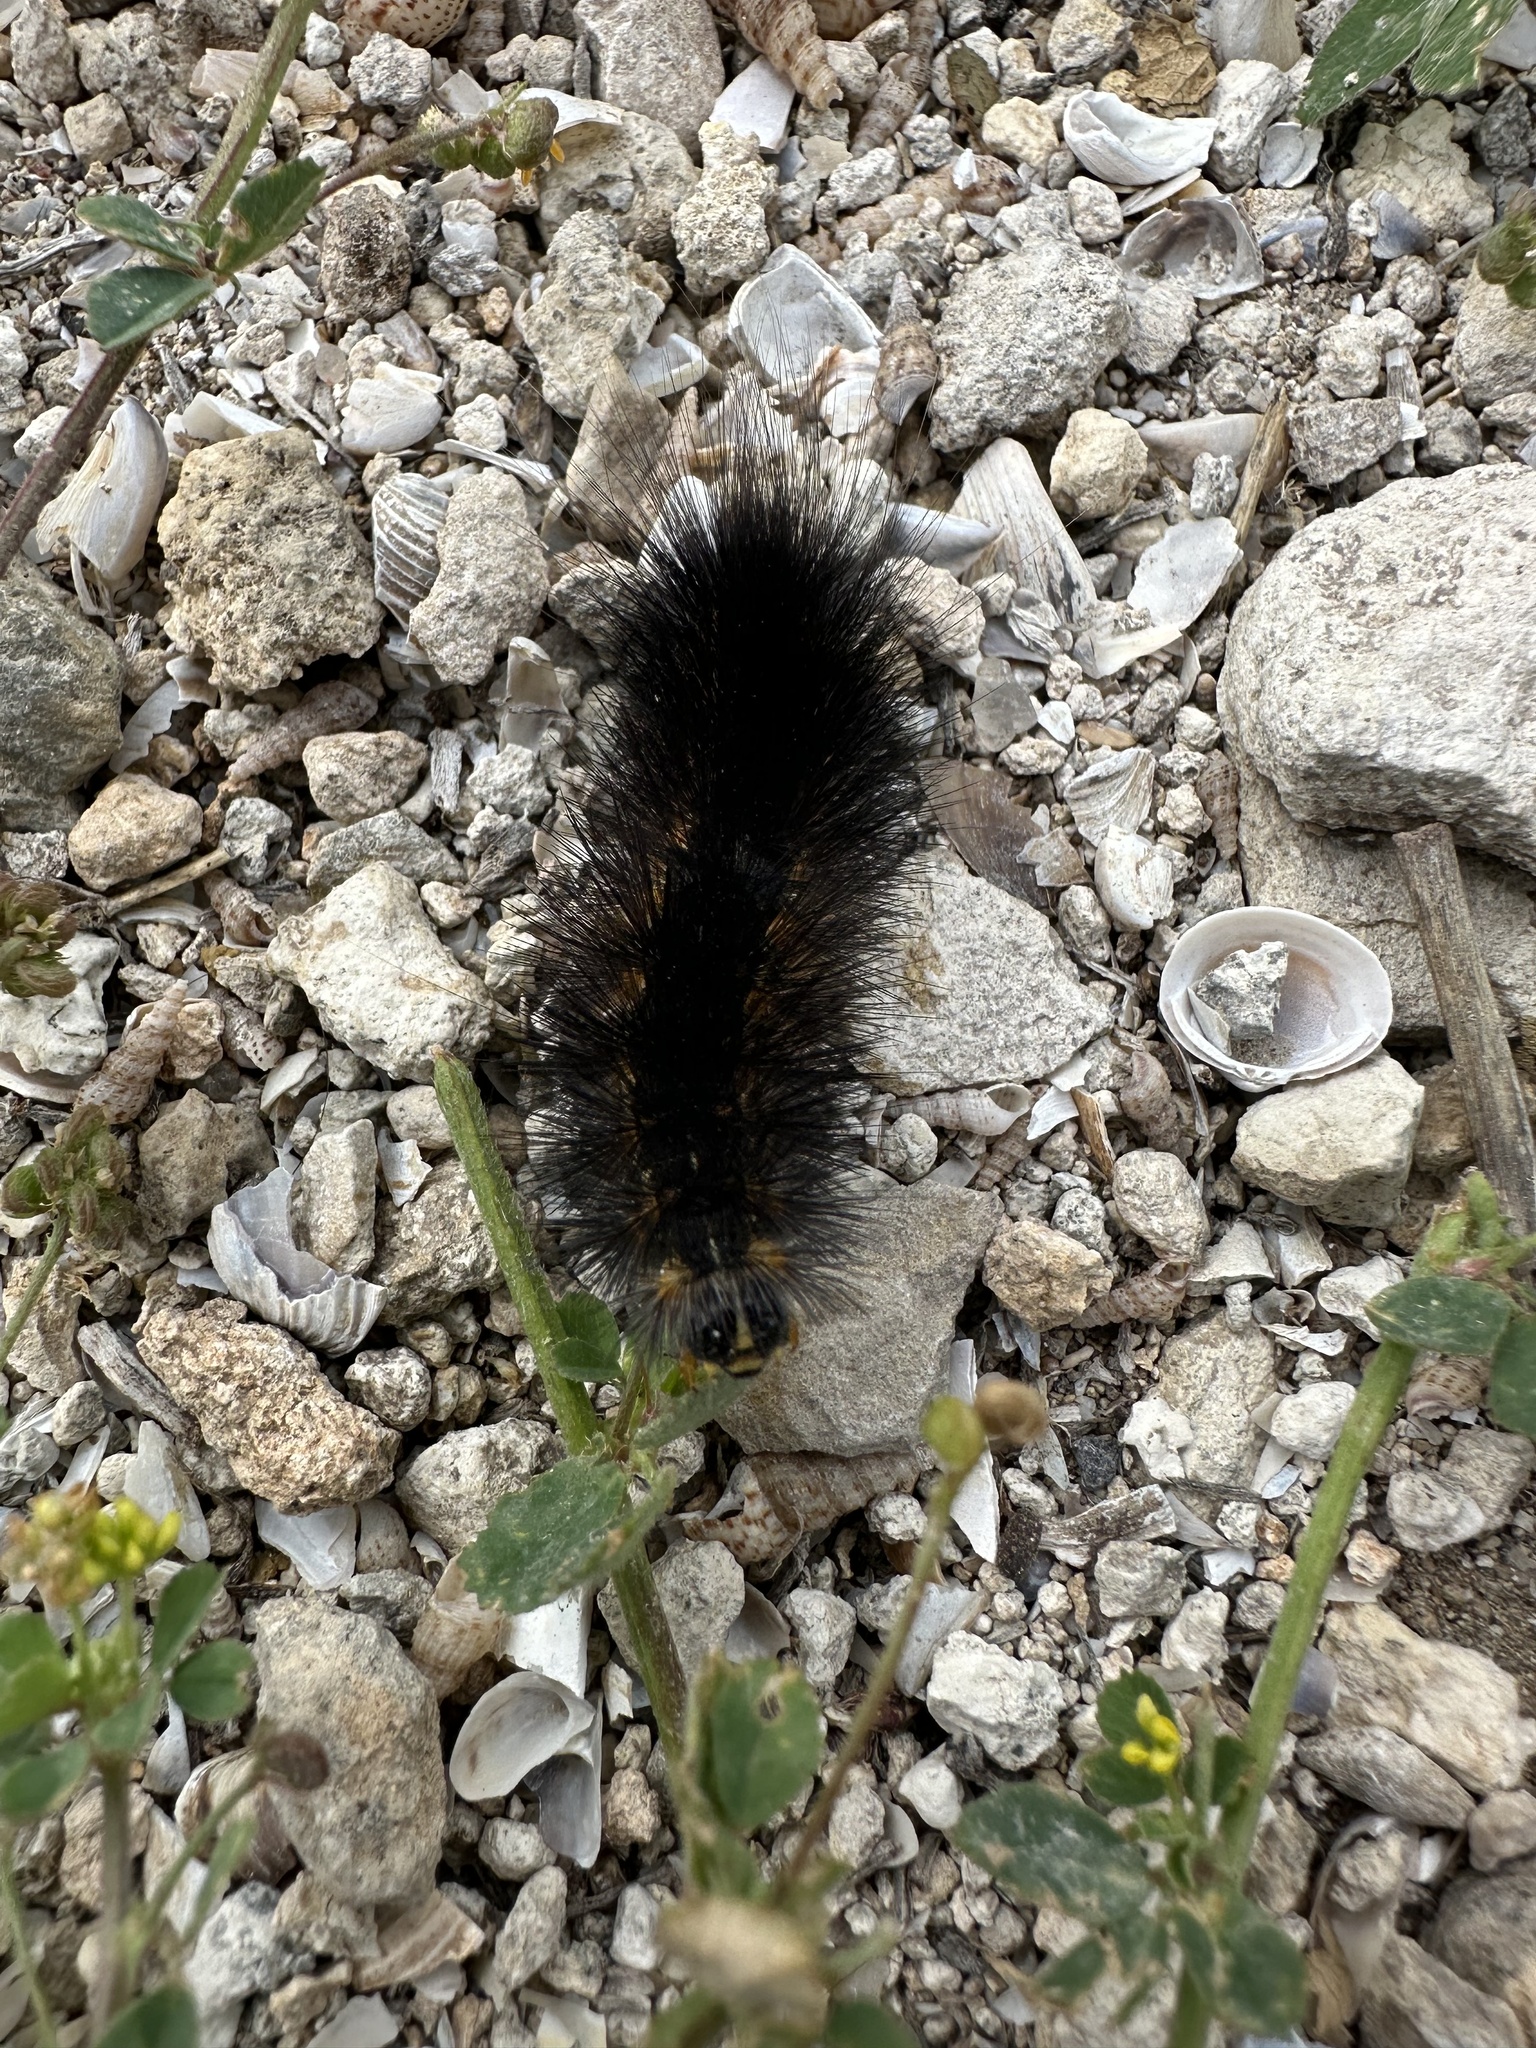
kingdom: Animalia
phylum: Arthropoda
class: Insecta
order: Lepidoptera
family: Erebidae
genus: Estigmene
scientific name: Estigmene acrea
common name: Salt marsh moth
